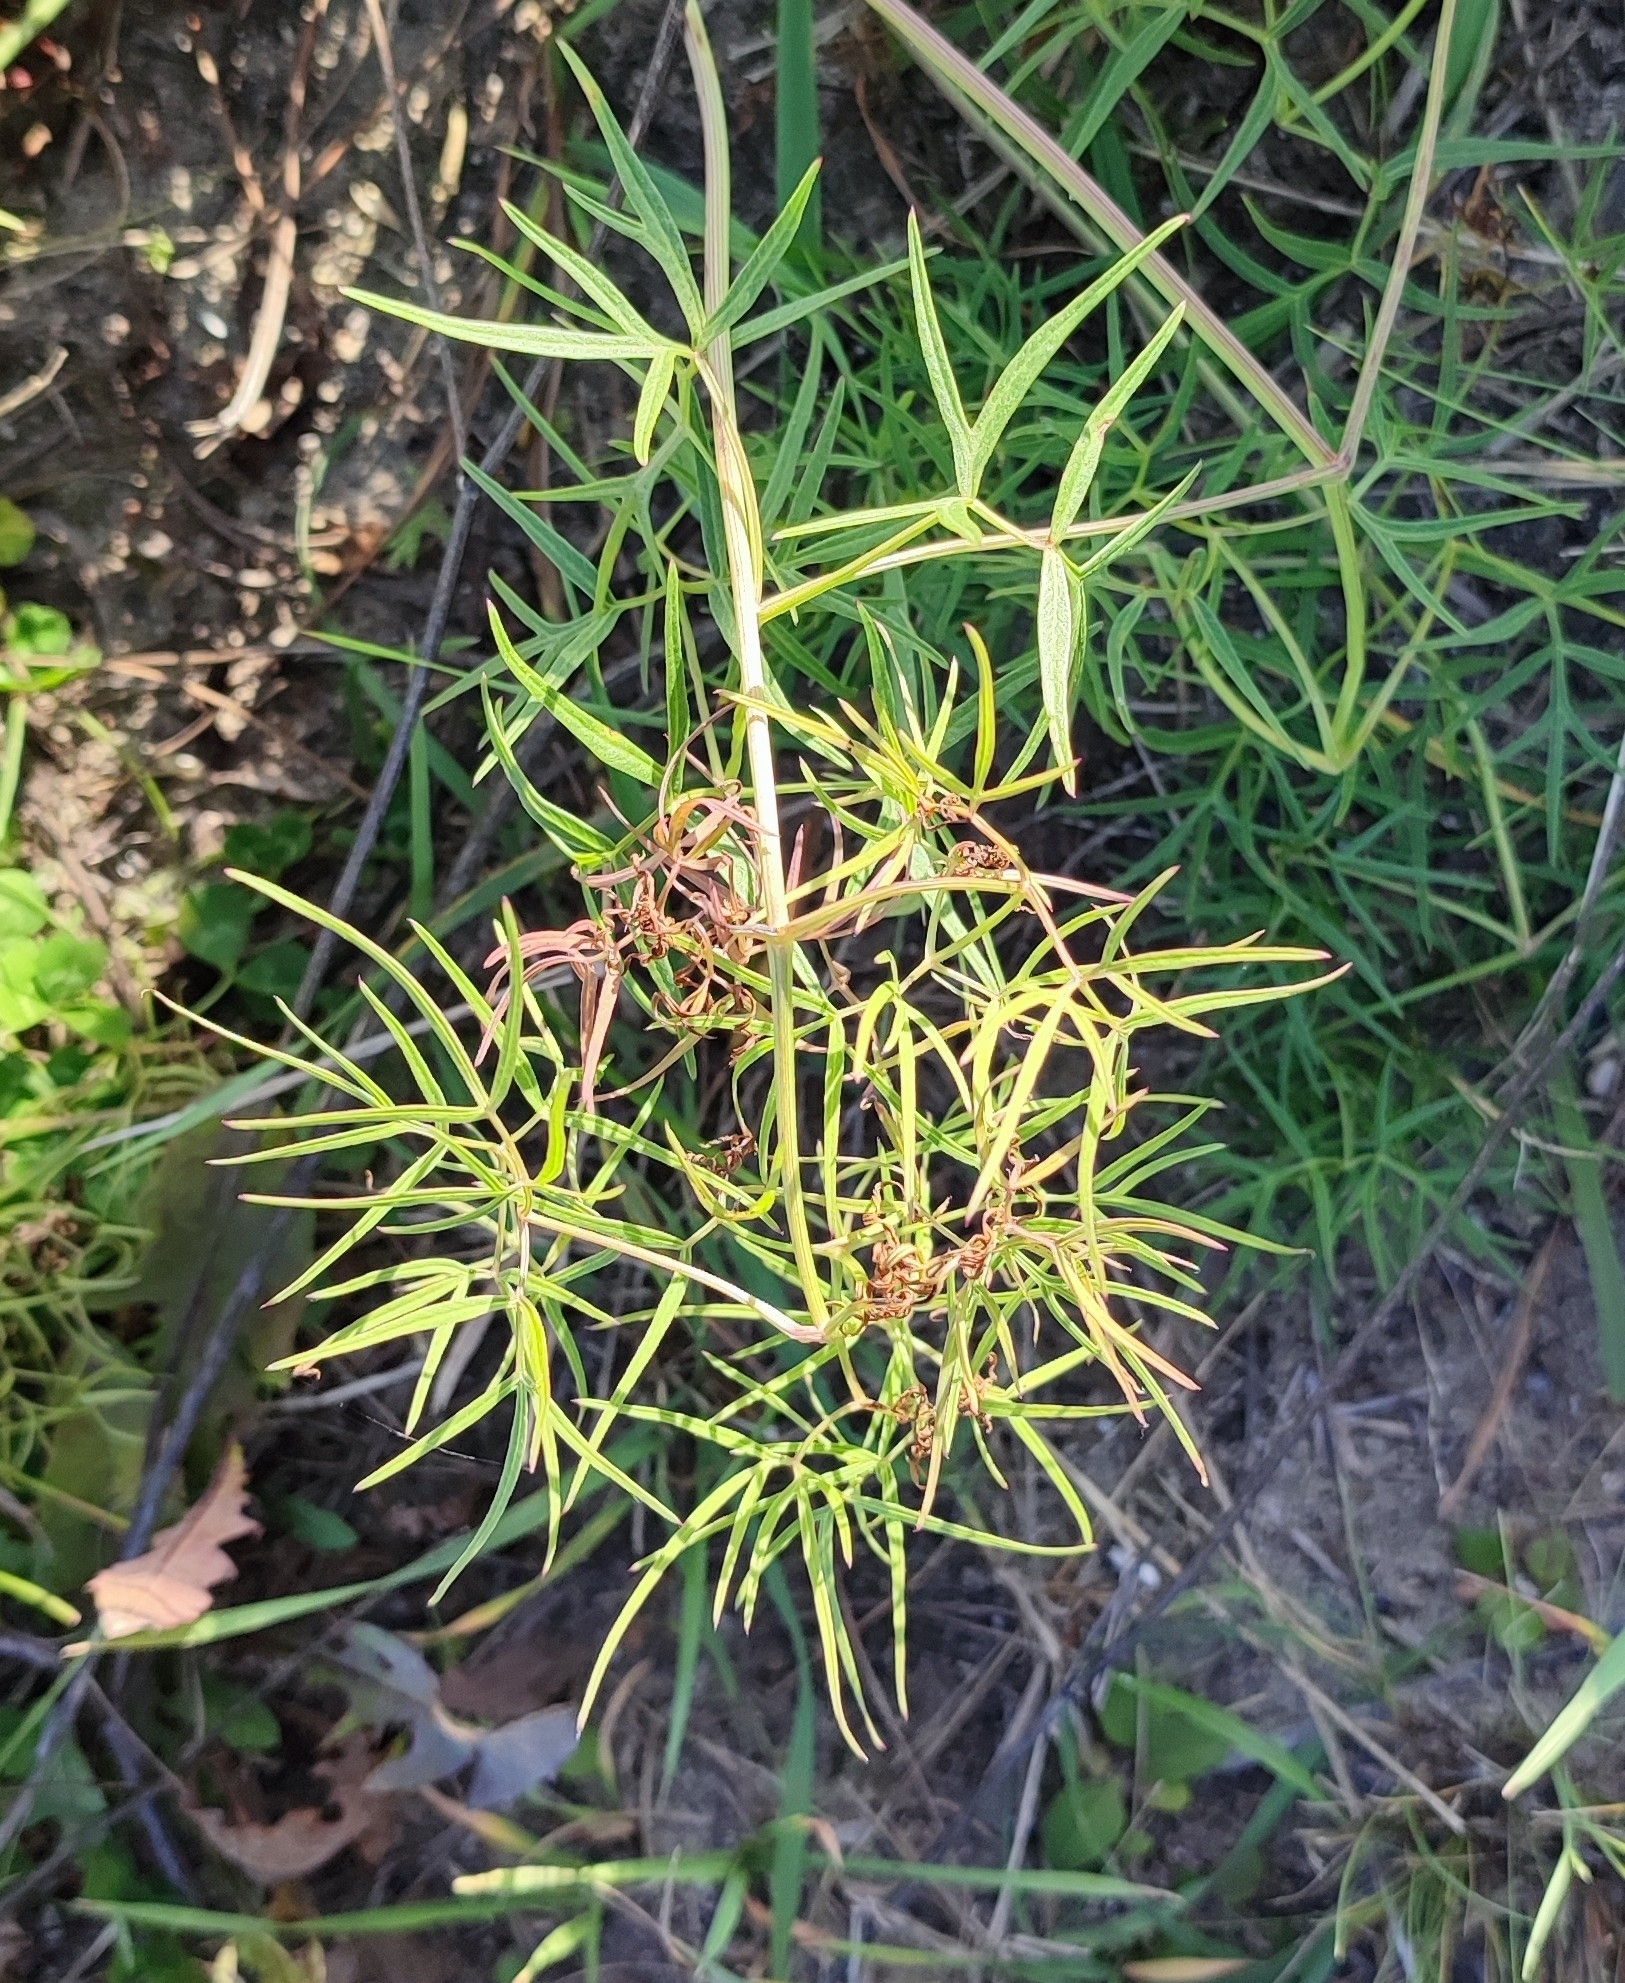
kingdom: Plantae
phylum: Tracheophyta
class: Magnoliopsida
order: Apiales
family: Apiaceae
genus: Cenolophium
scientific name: Cenolophium fischeri
